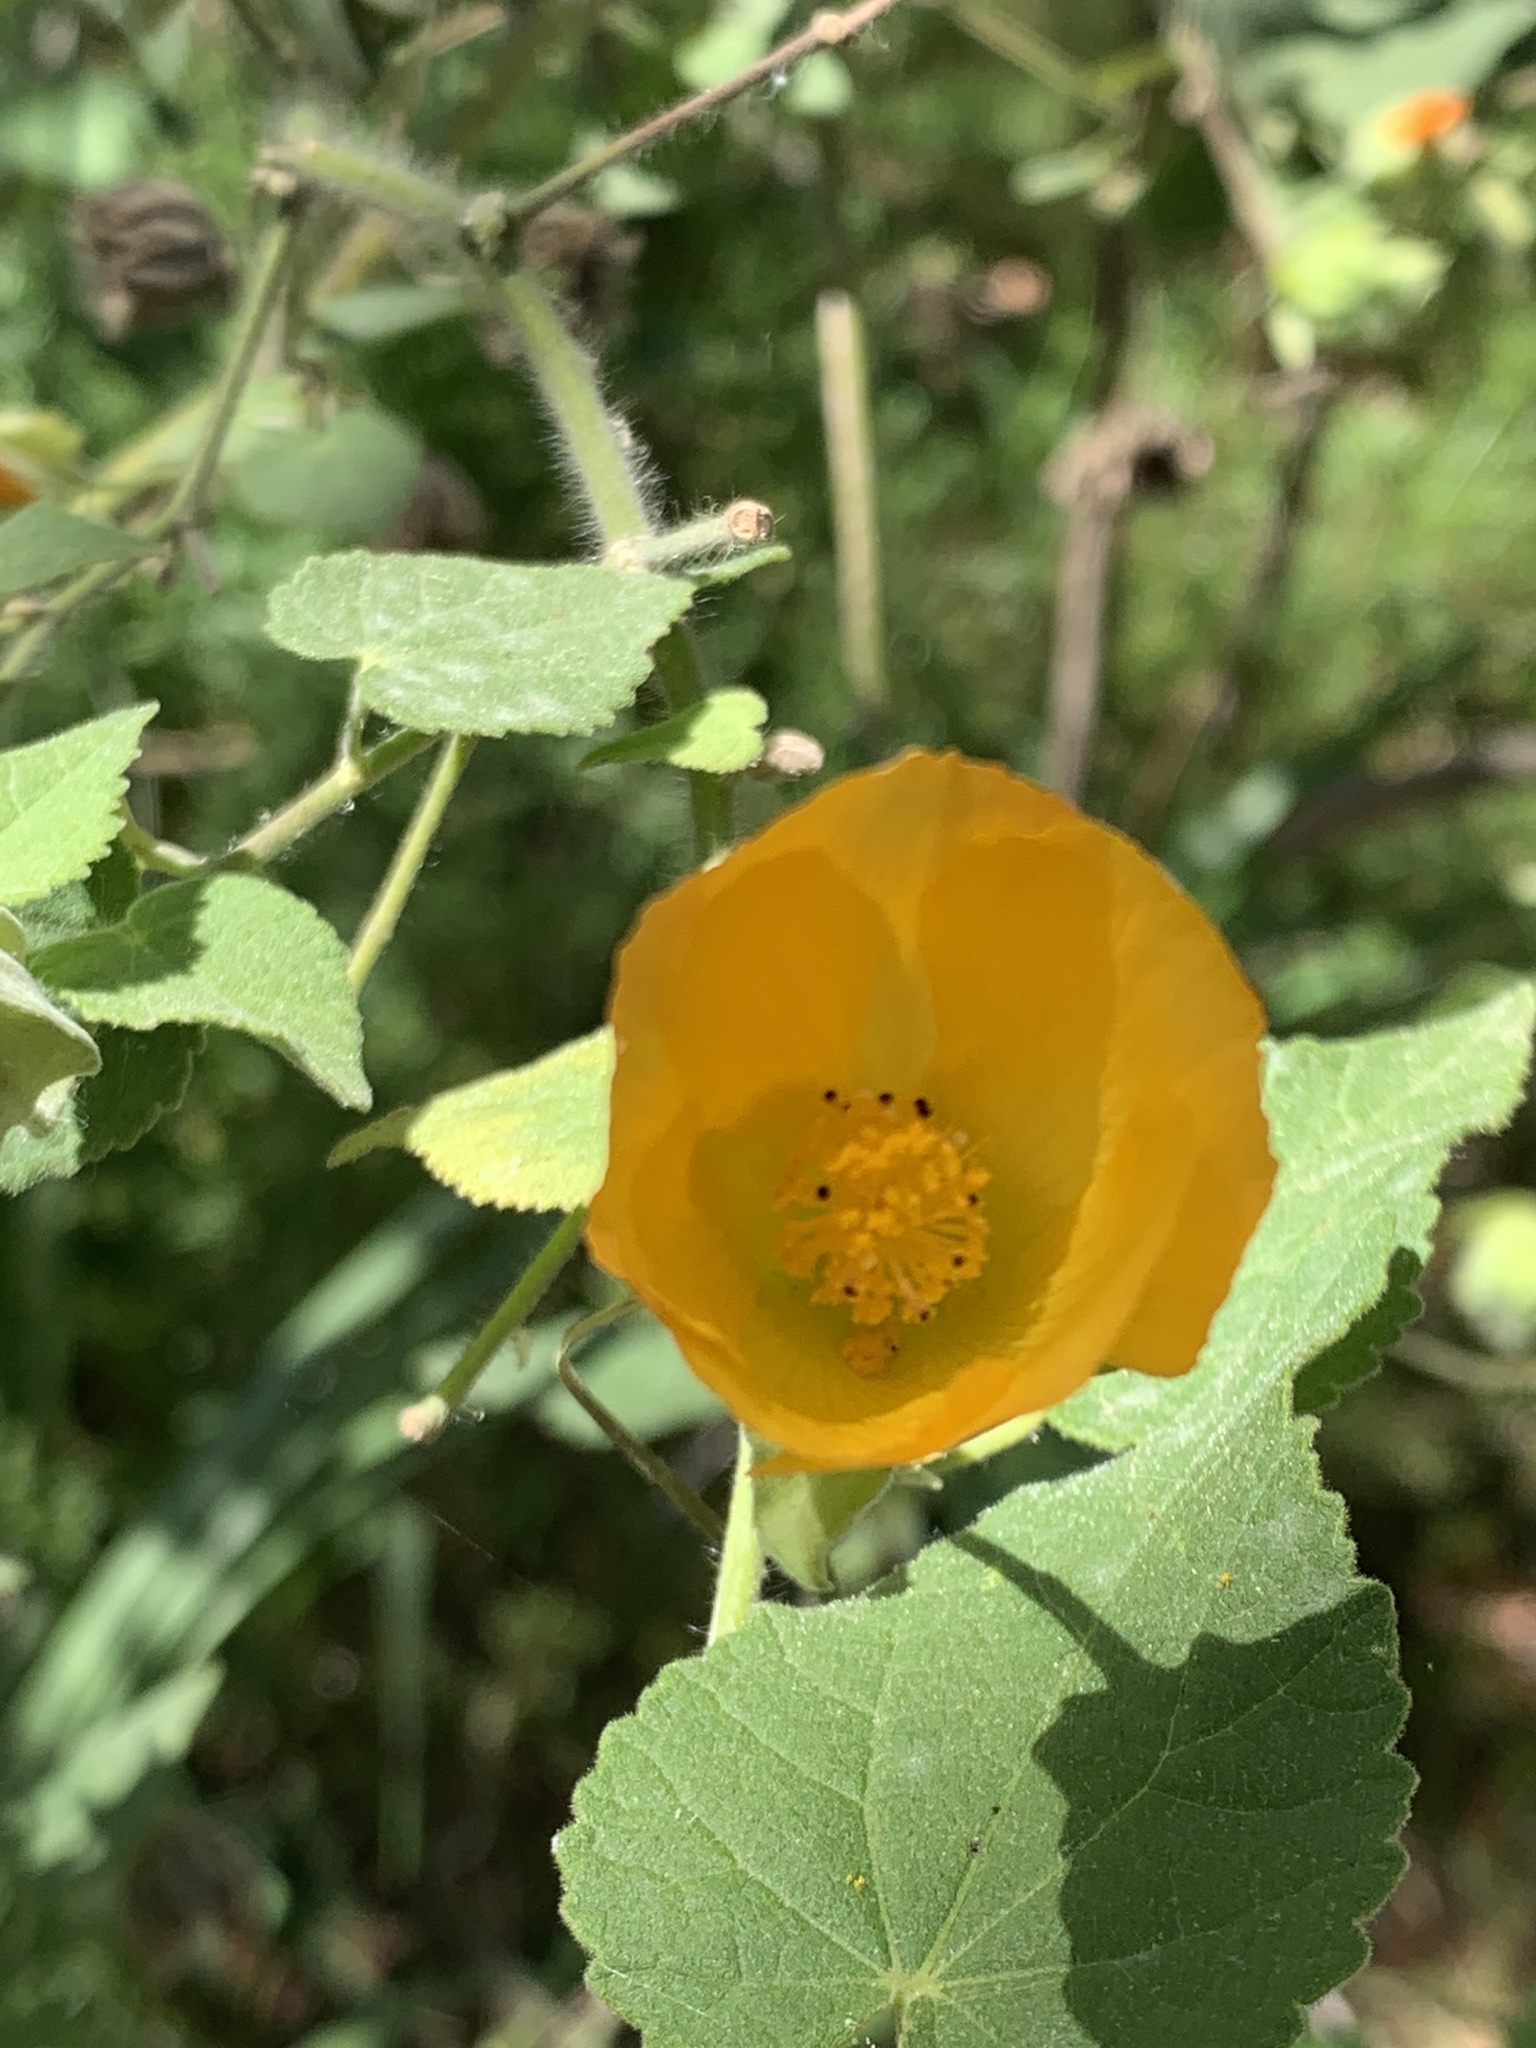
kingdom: Plantae
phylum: Tracheophyta
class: Magnoliopsida
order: Malvales
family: Malvaceae
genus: Abutilon
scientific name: Abutilon grandifolium
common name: Hairy abutilon
